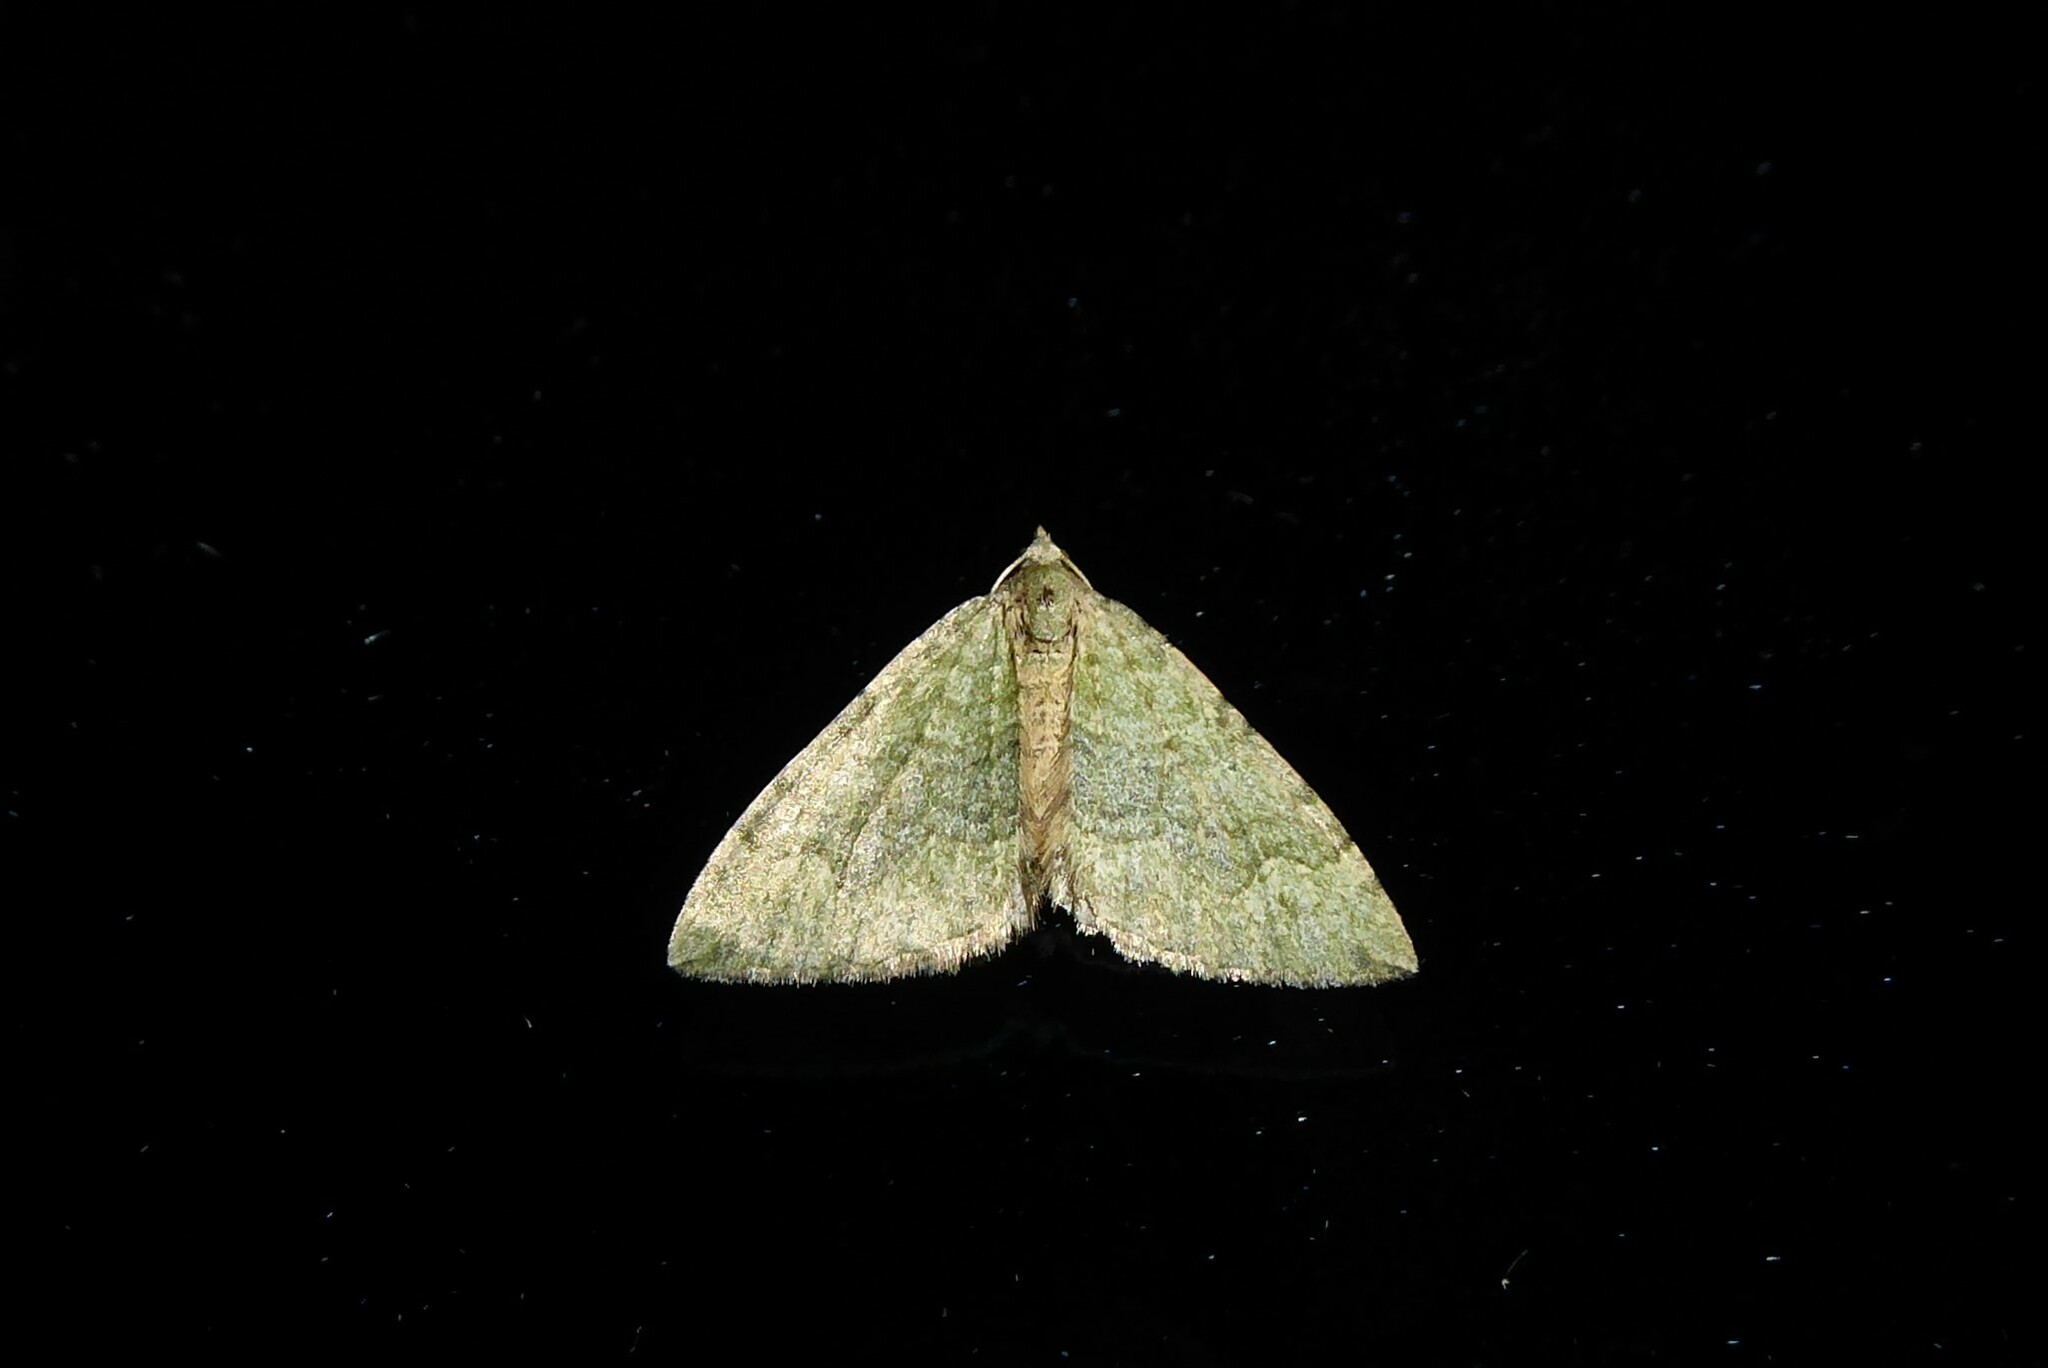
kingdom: Animalia
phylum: Arthropoda
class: Insecta
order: Lepidoptera
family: Geometridae
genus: Epyaxa
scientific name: Epyaxa rosearia
